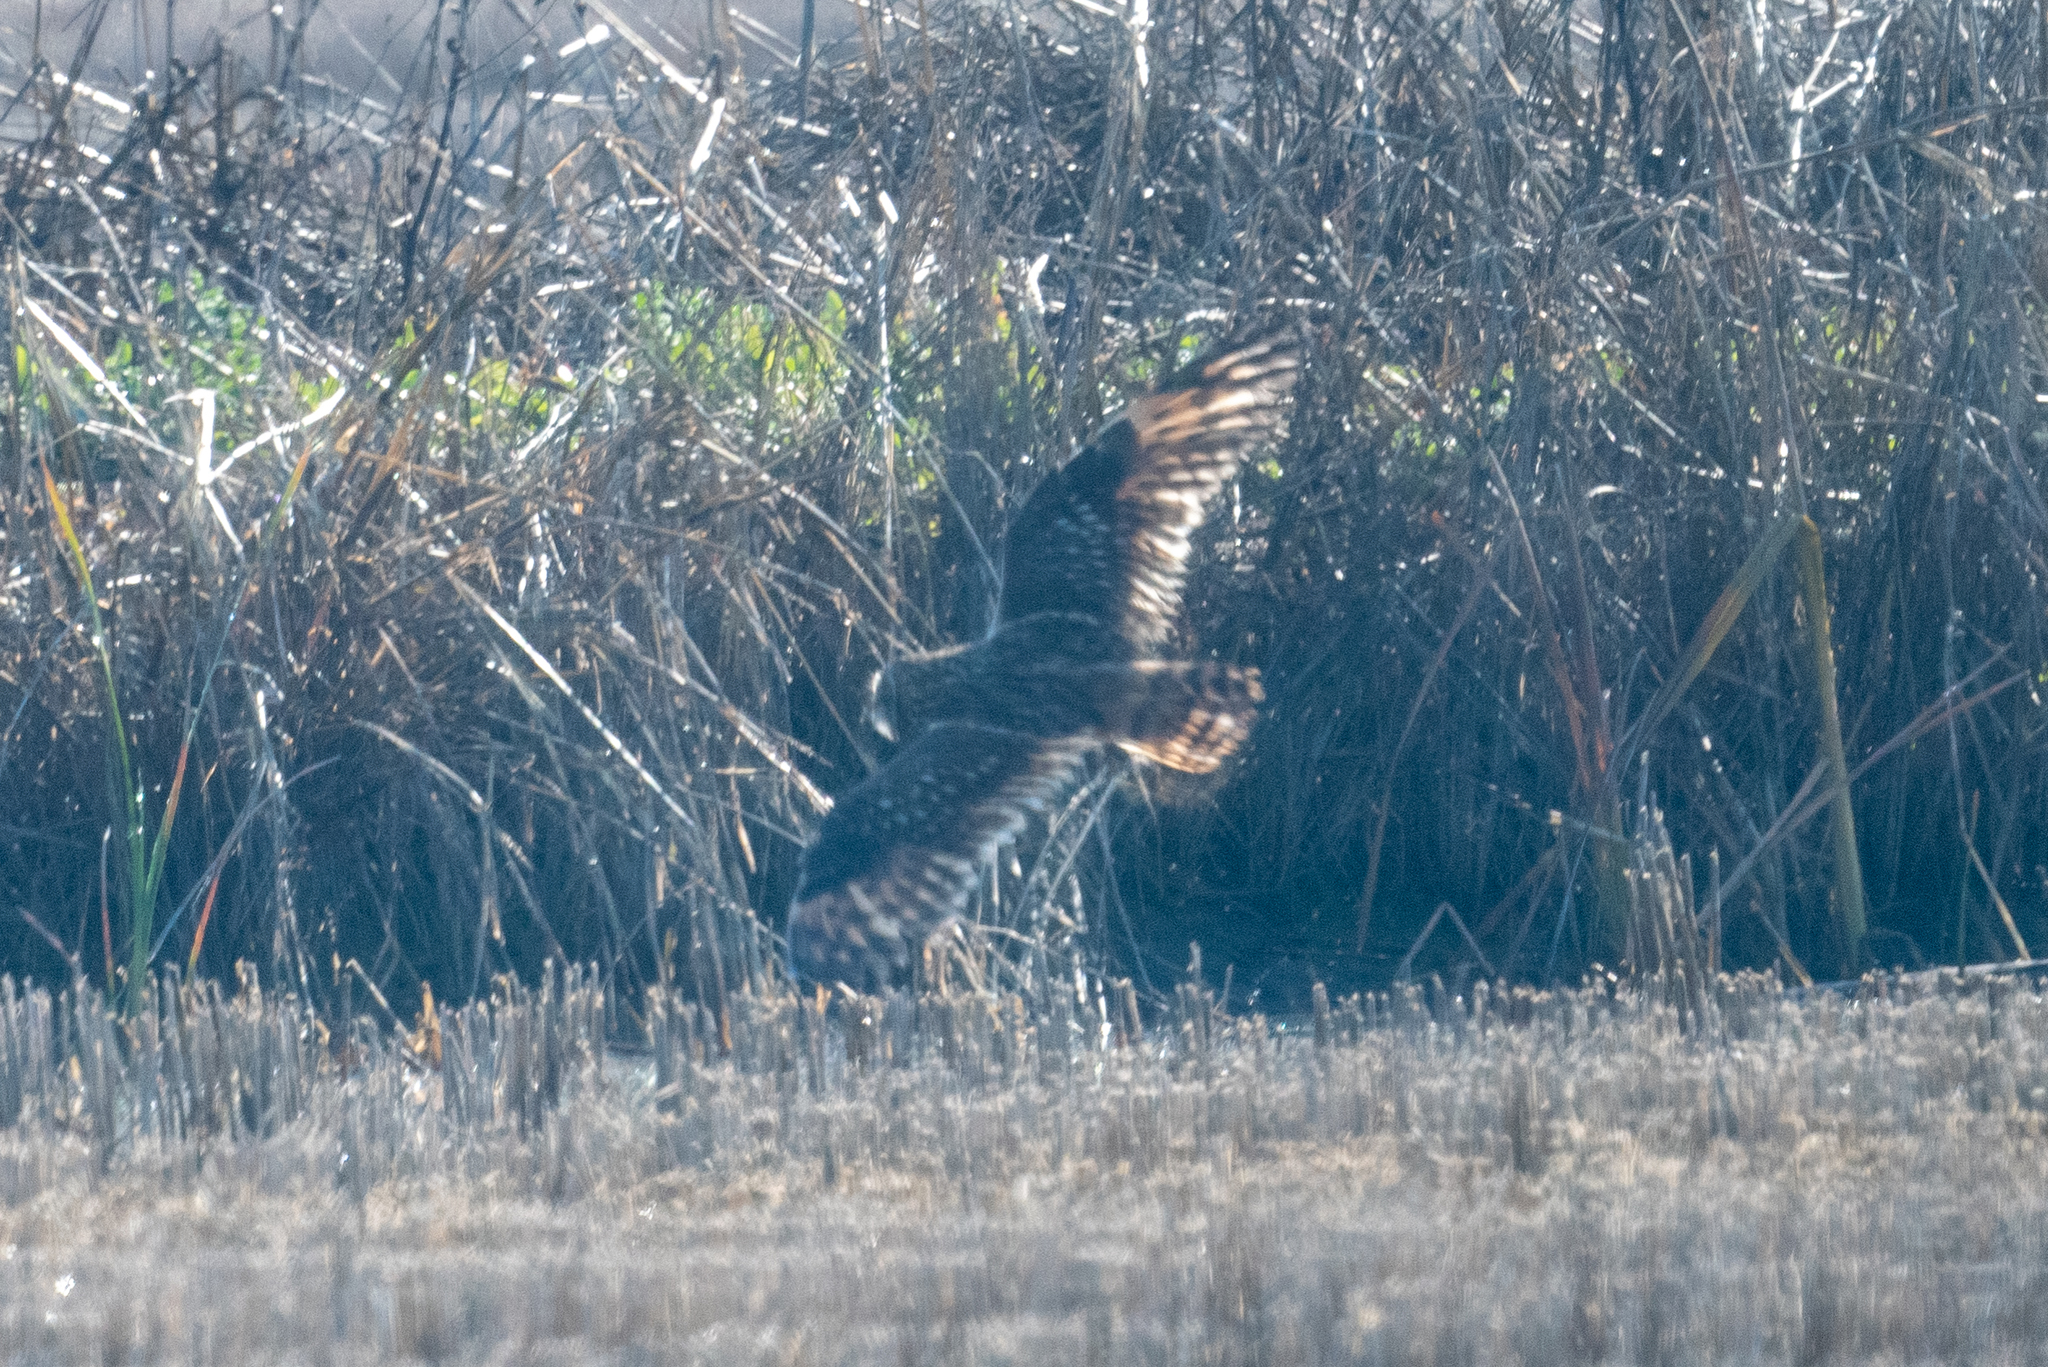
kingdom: Animalia
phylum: Chordata
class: Aves
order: Strigiformes
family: Strigidae
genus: Asio
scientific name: Asio flammeus
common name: Short-eared owl
